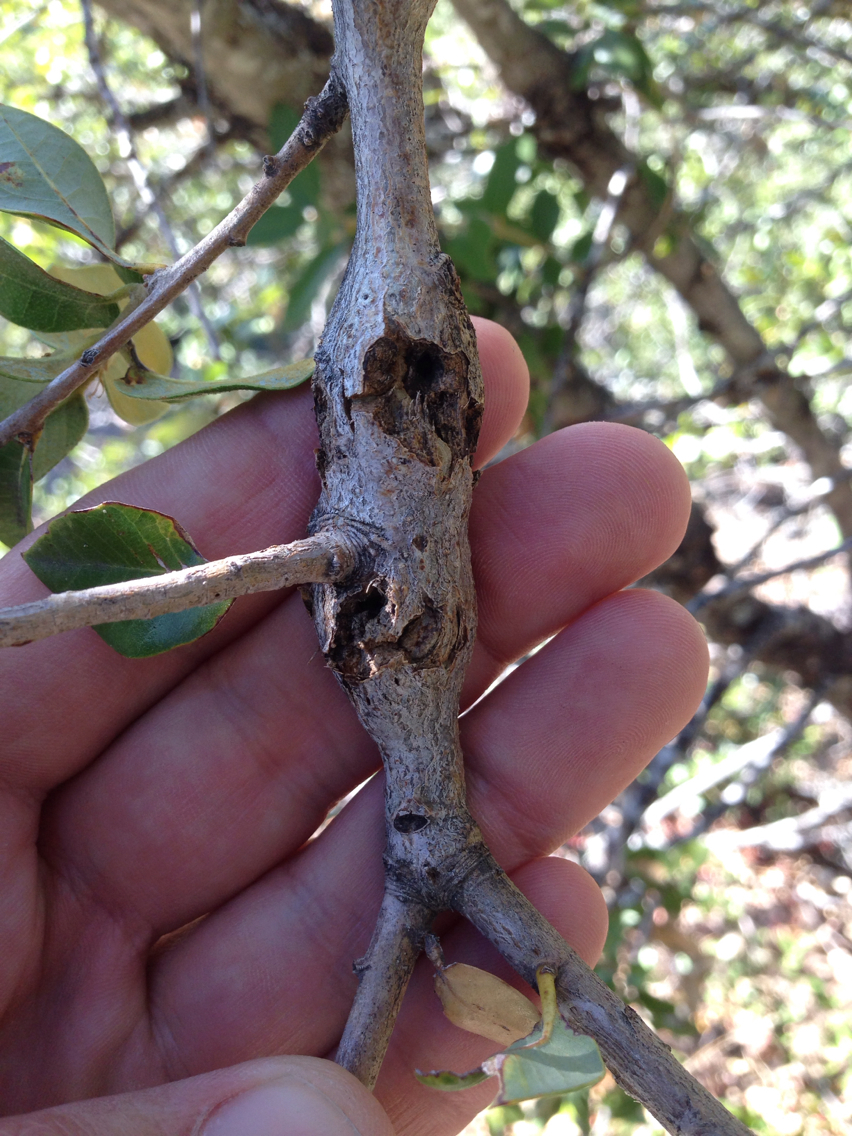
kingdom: Animalia
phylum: Arthropoda
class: Insecta
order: Hymenoptera
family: Cynipidae
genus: Disholcaspis
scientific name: Disholcaspis spectabilis
